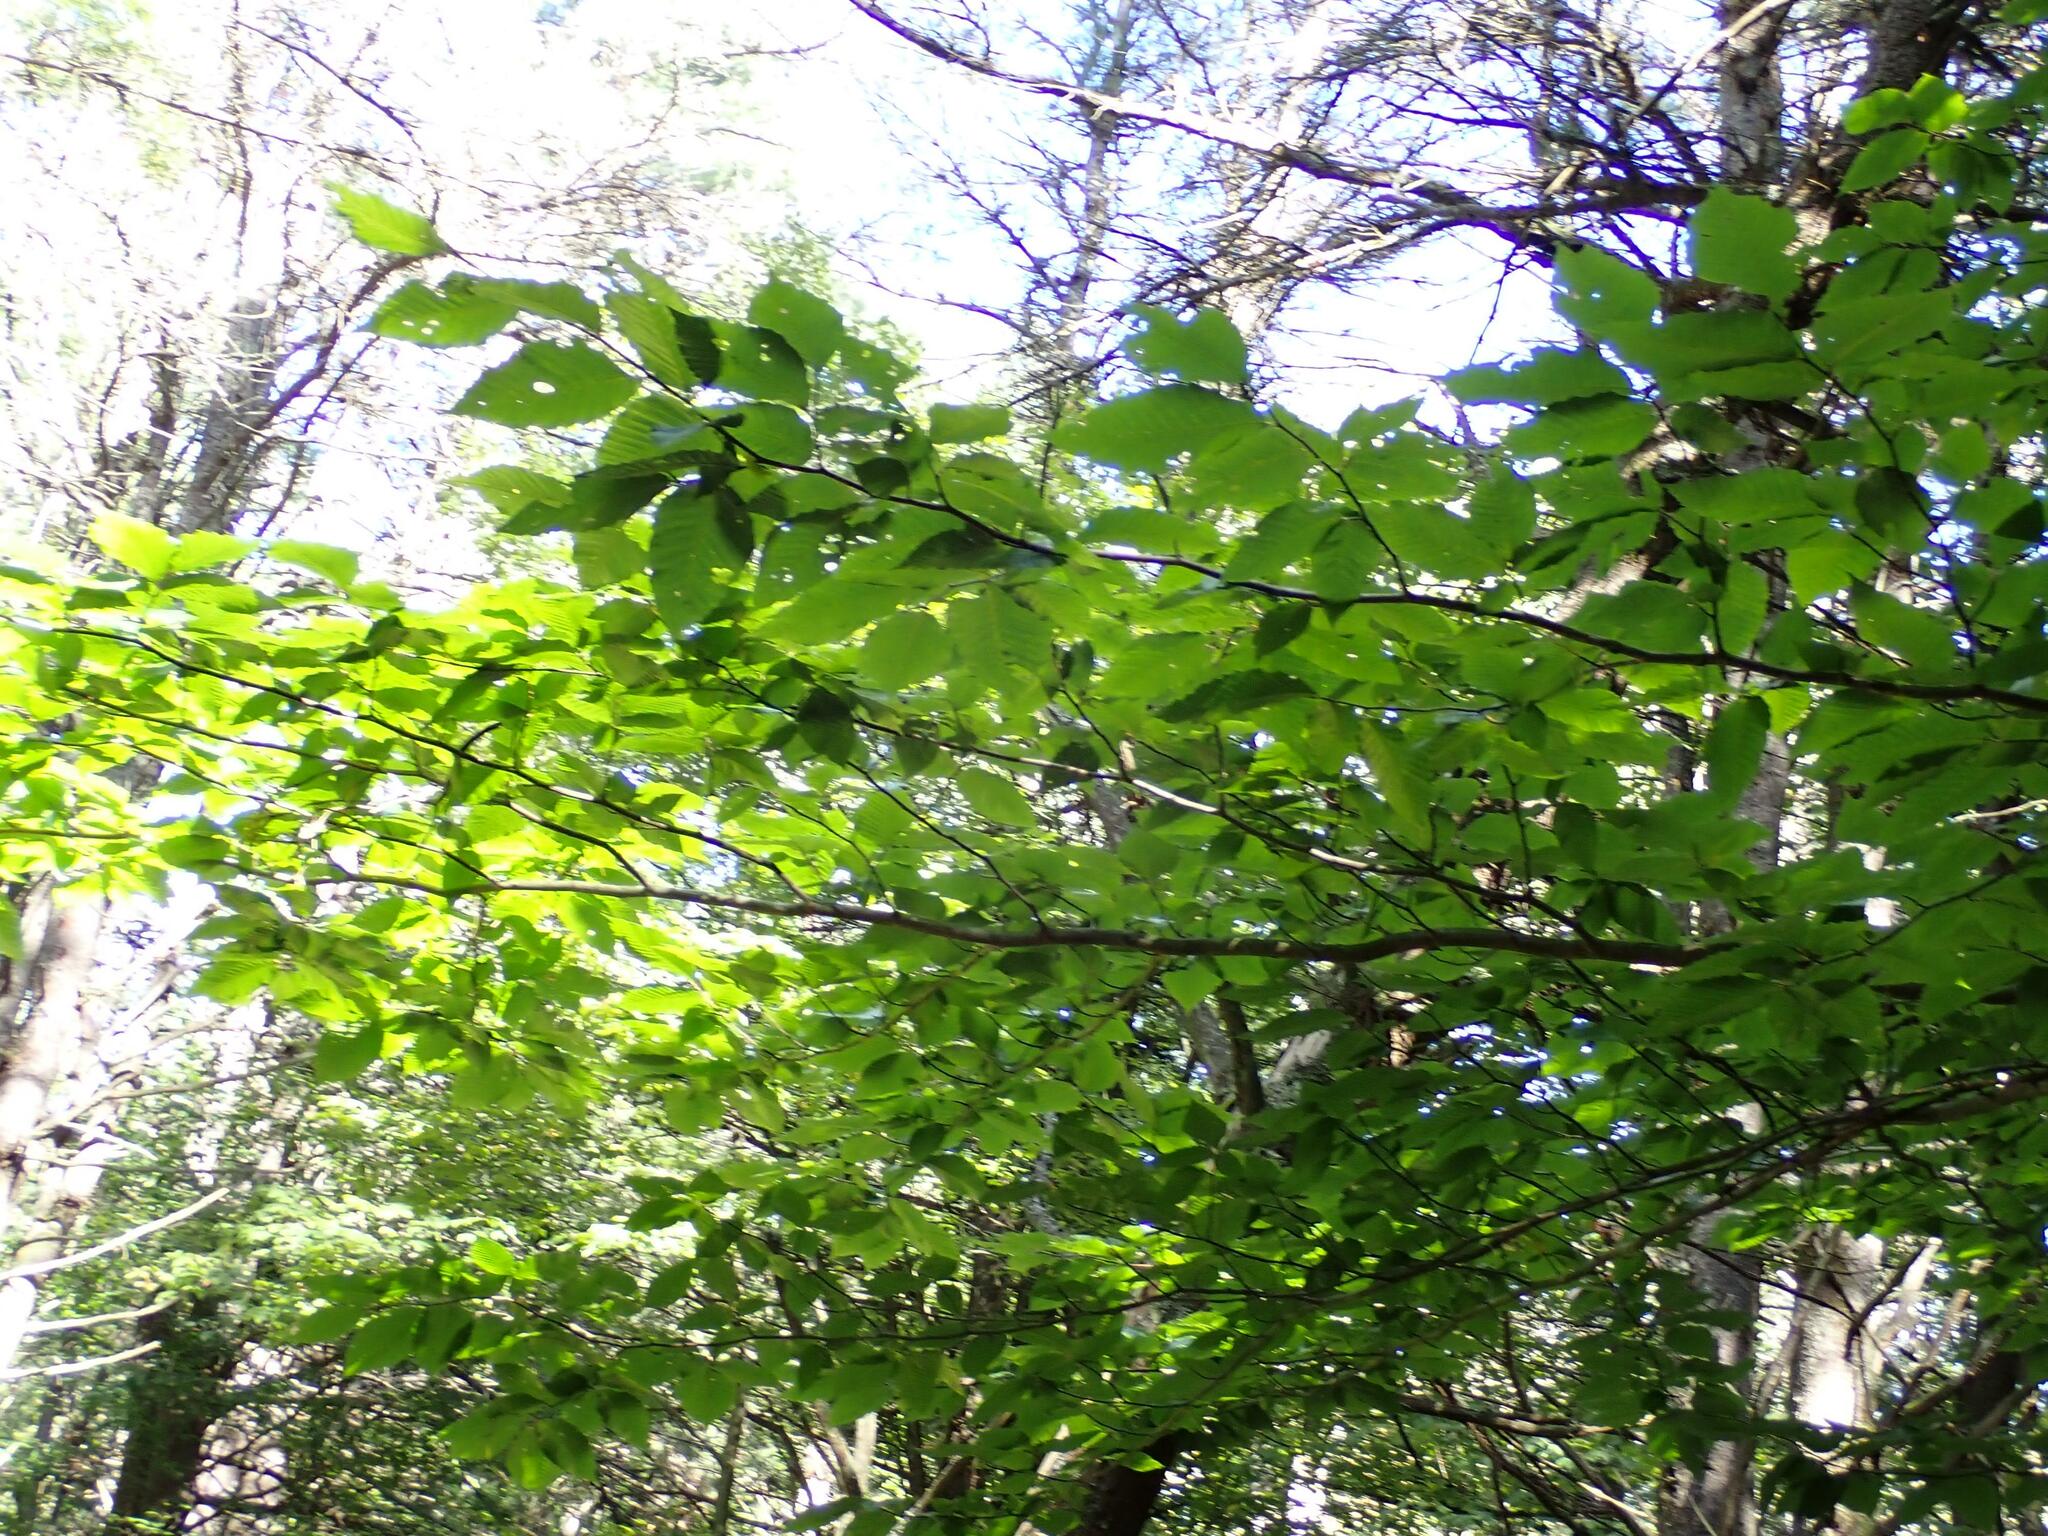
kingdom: Plantae
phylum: Tracheophyta
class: Magnoliopsida
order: Fagales
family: Fagaceae
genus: Fagus
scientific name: Fagus grandifolia
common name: American beech
